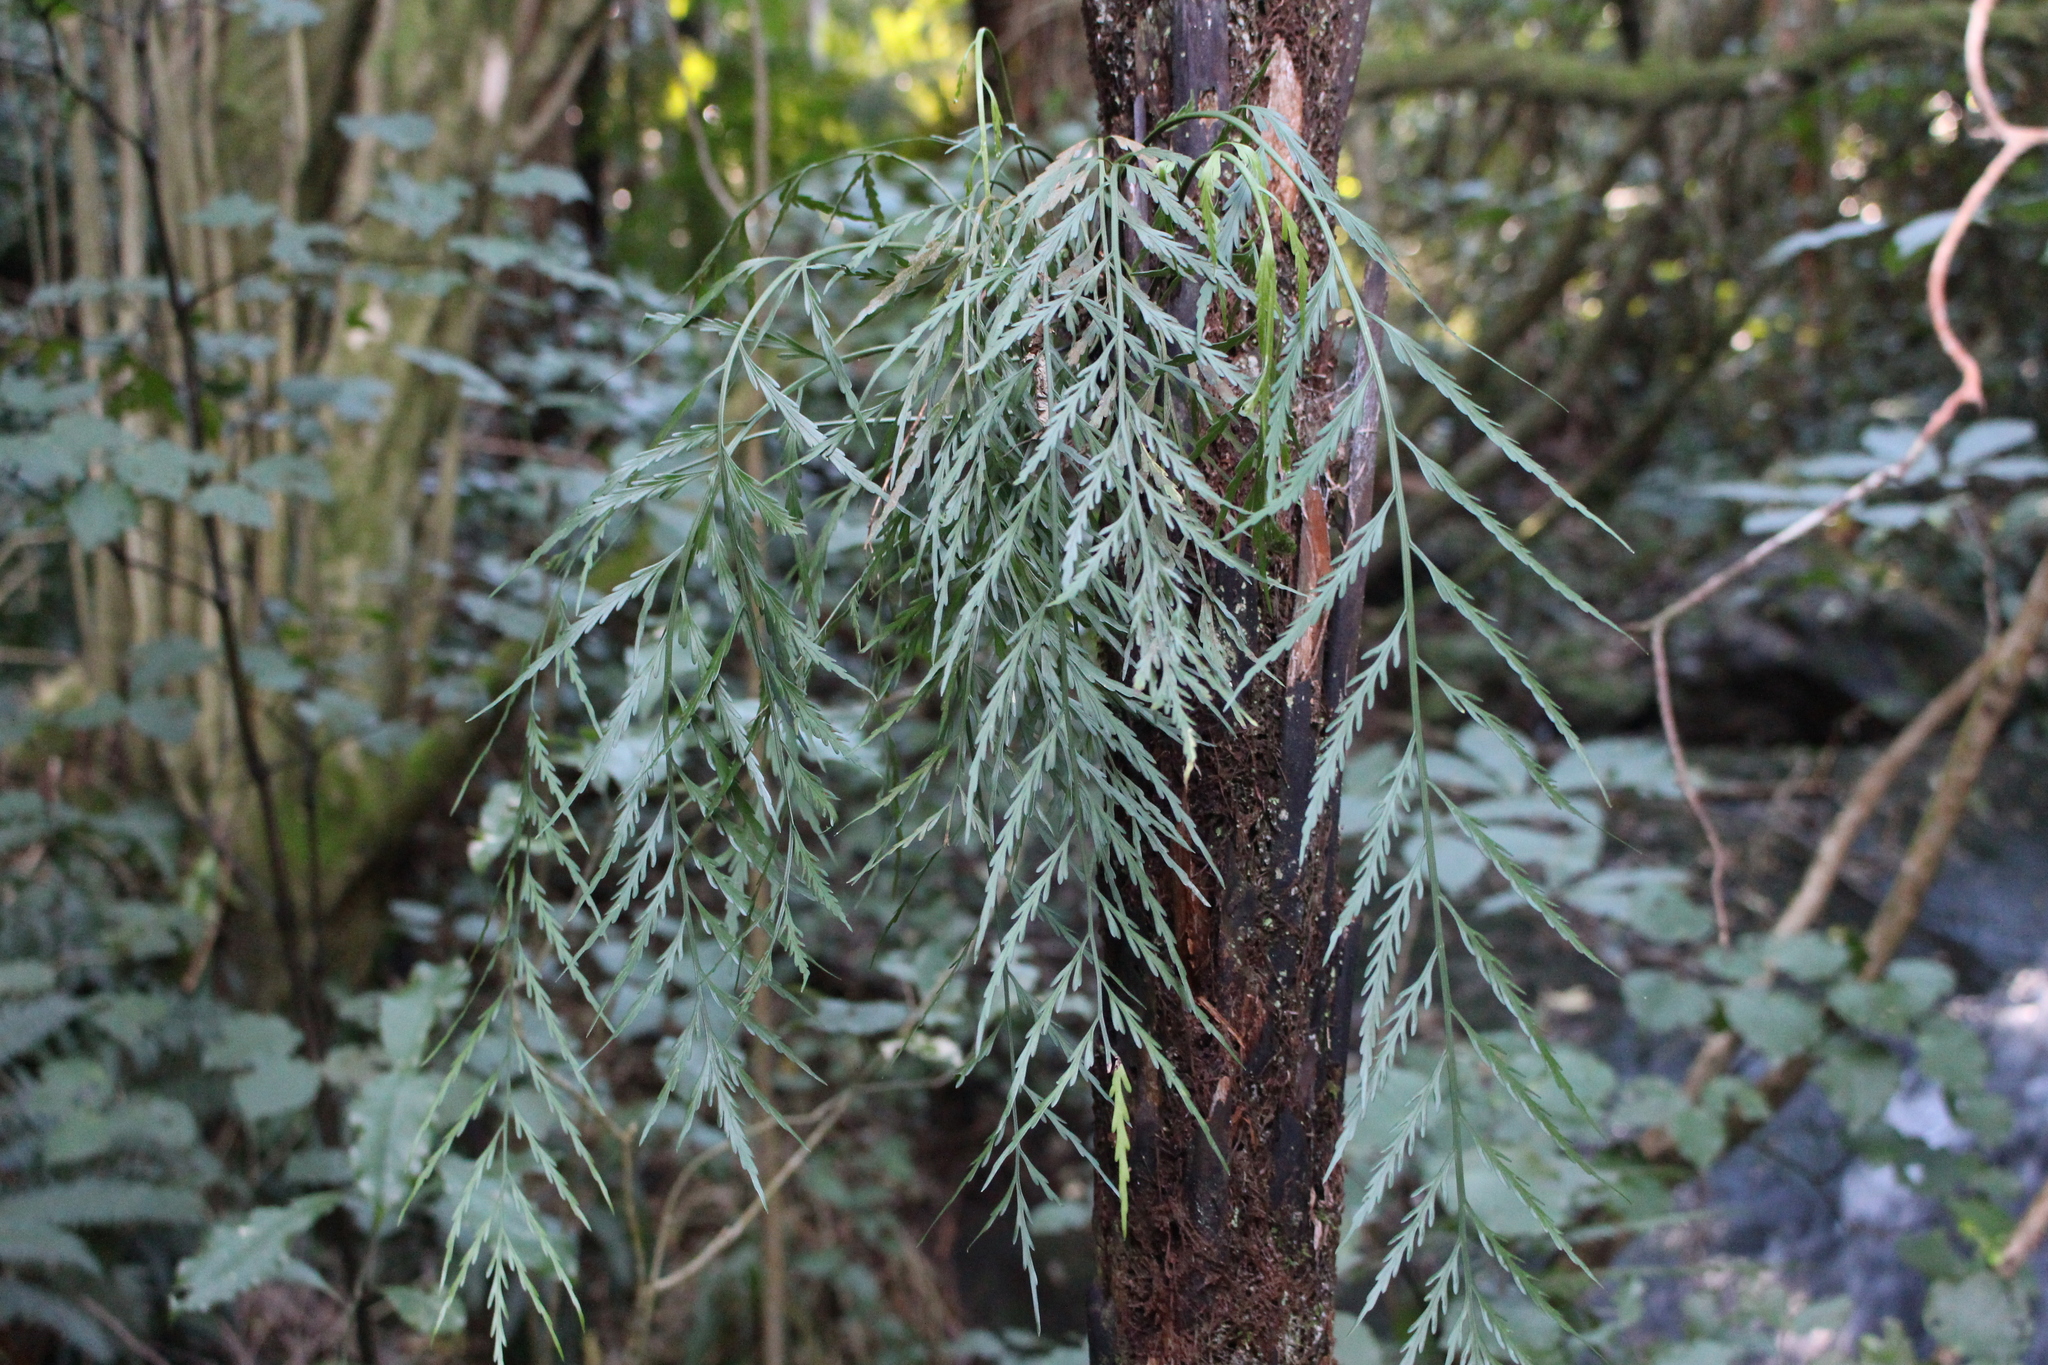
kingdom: Plantae
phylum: Tracheophyta
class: Polypodiopsida
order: Polypodiales
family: Aspleniaceae
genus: Asplenium
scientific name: Asplenium flaccidum
